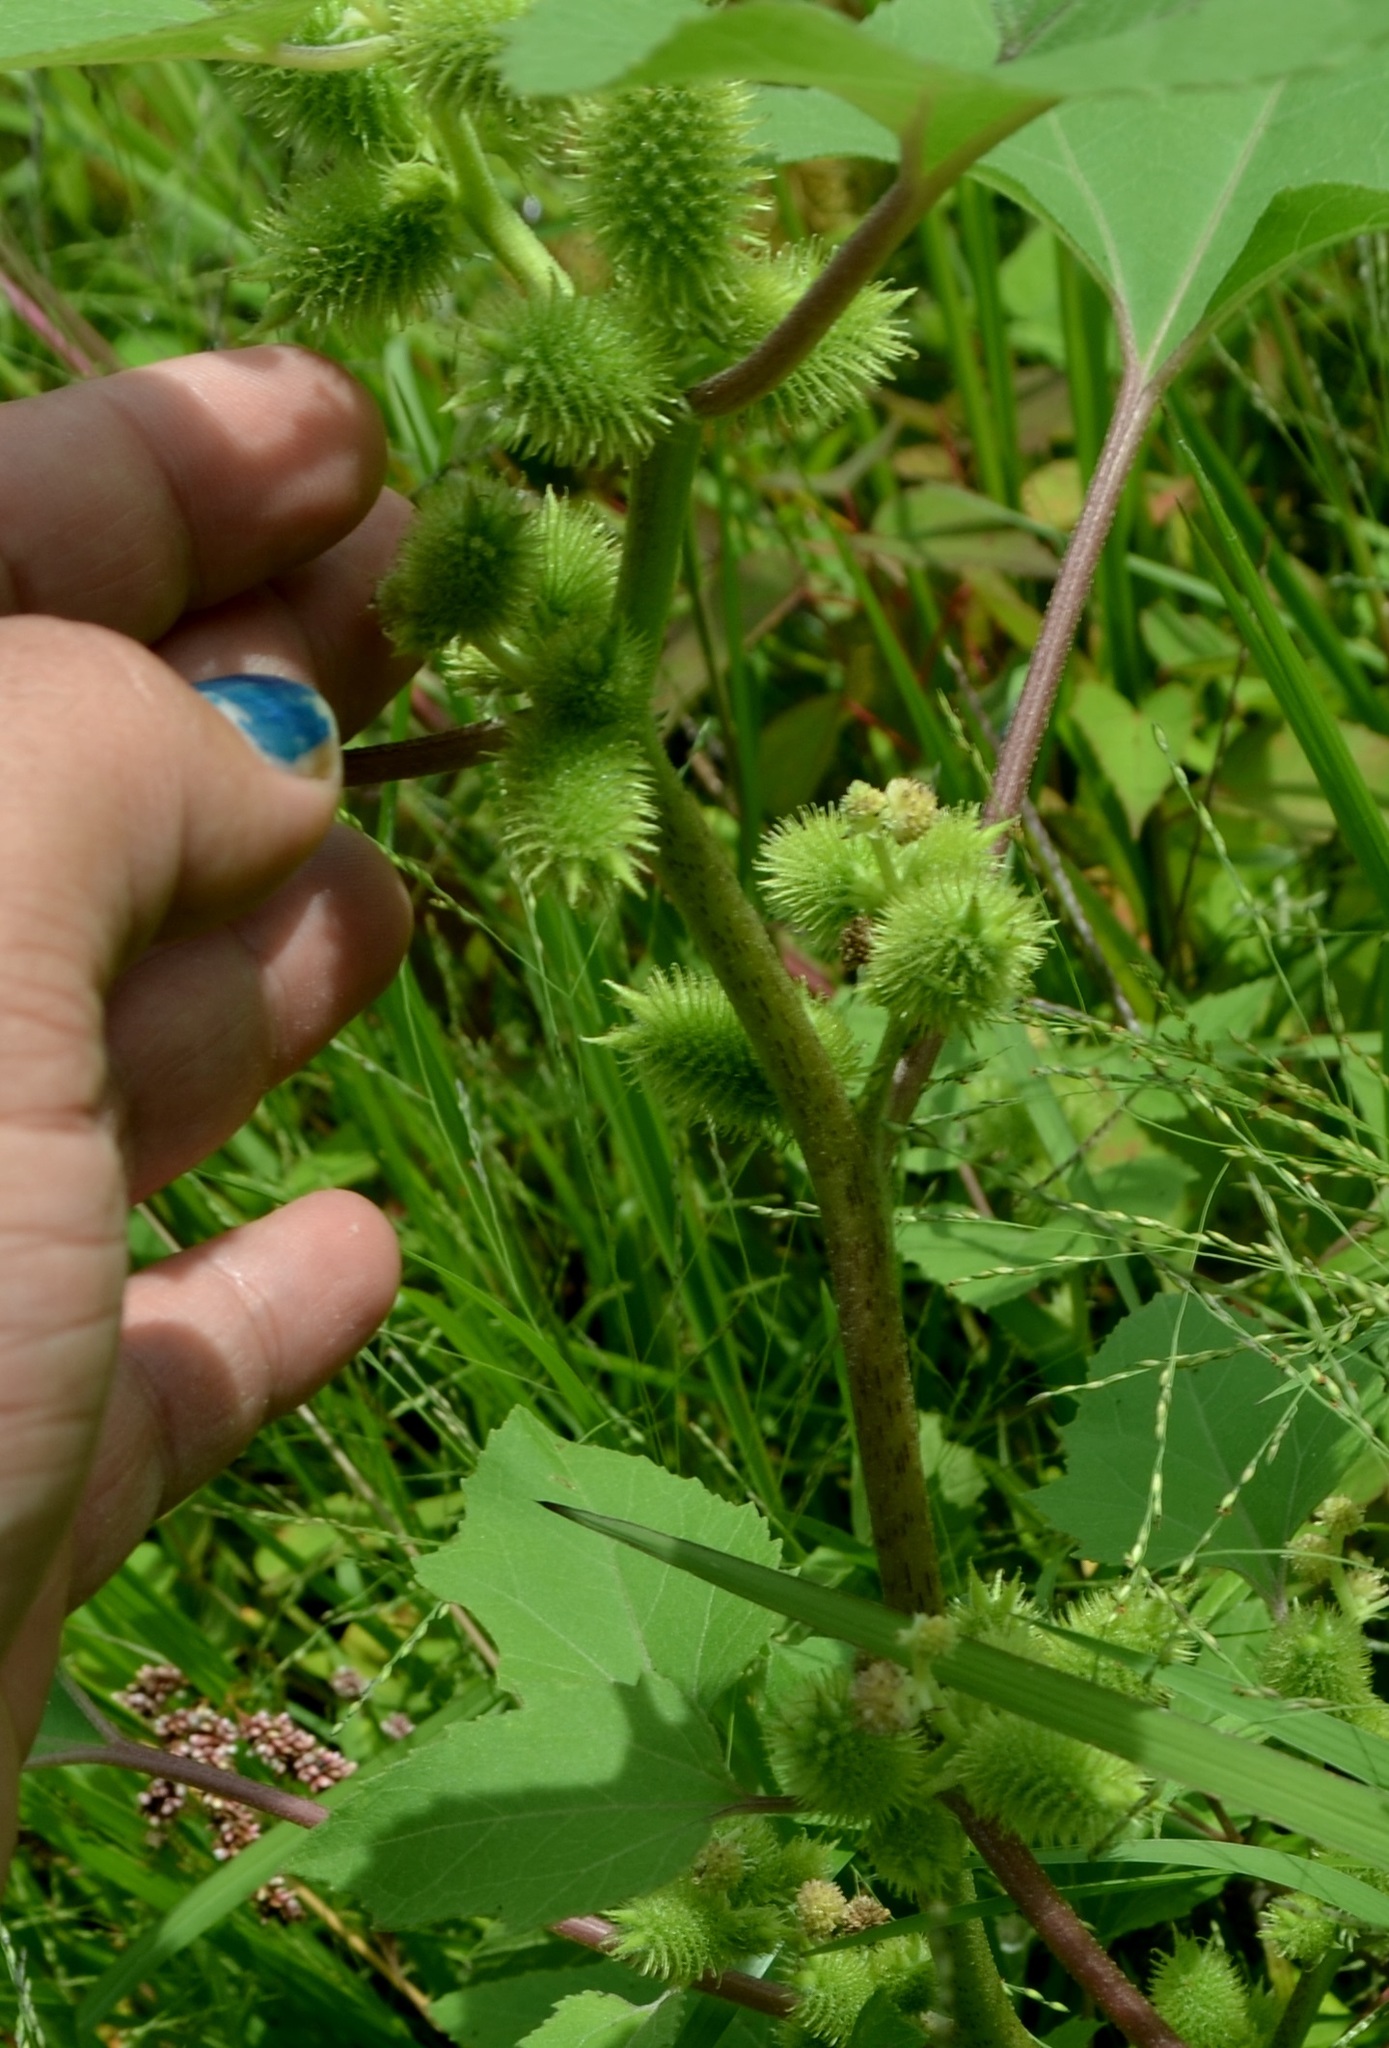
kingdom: Plantae
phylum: Tracheophyta
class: Magnoliopsida
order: Asterales
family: Asteraceae
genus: Xanthium
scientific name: Xanthium strumarium
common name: Rough cocklebur
